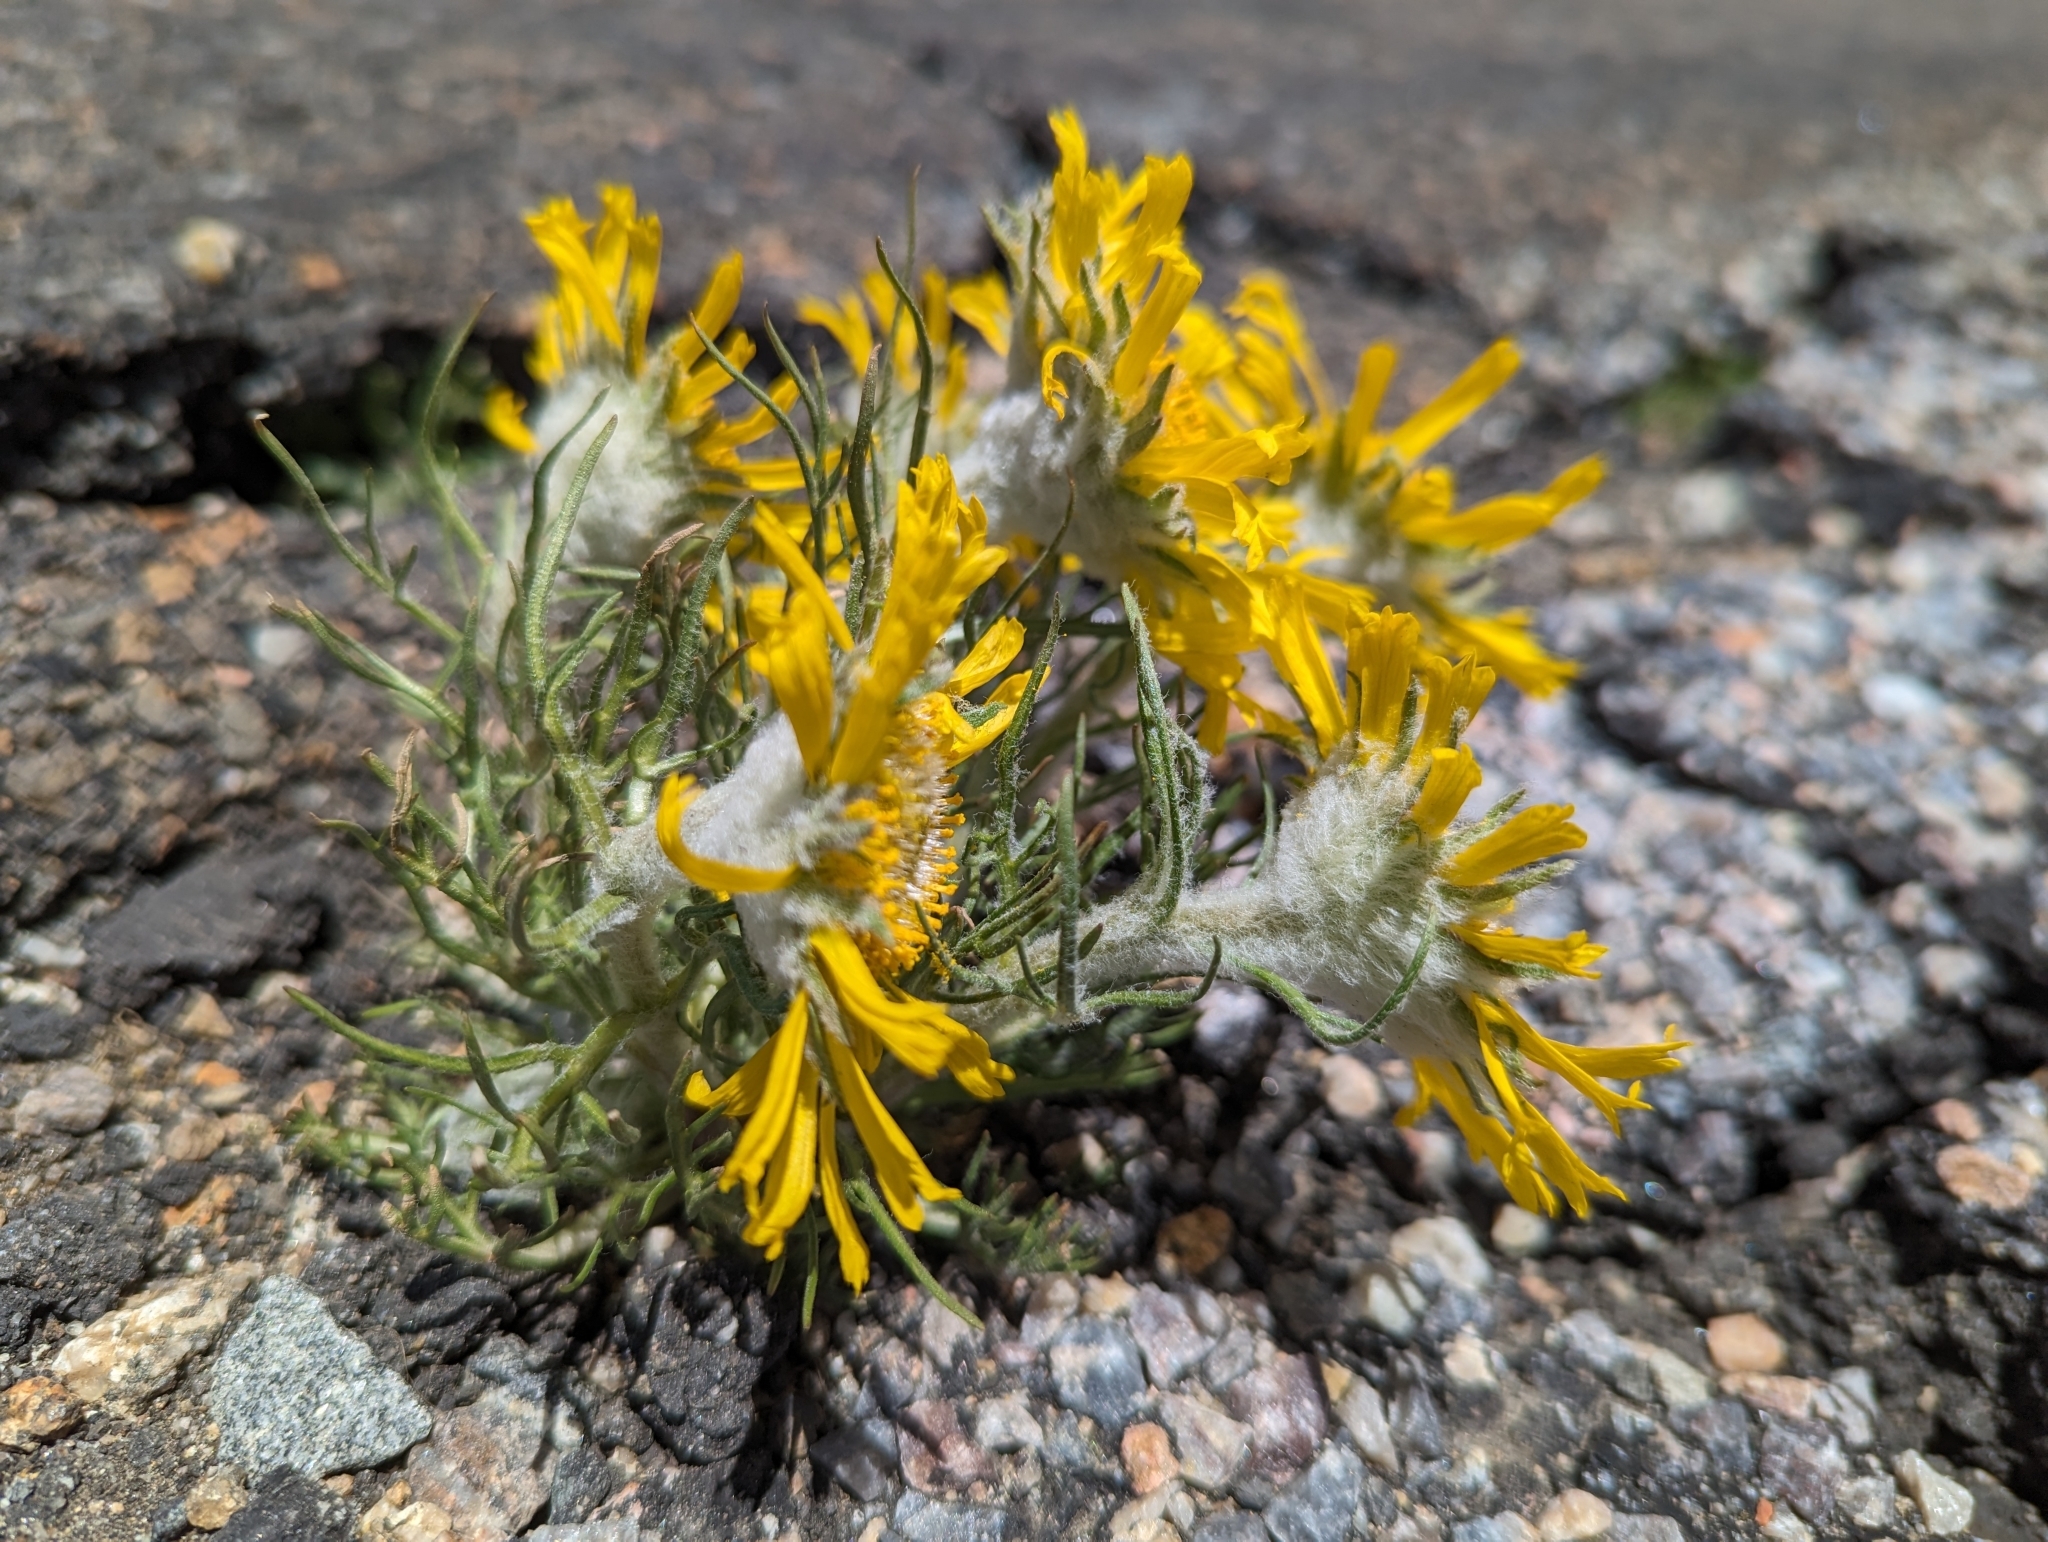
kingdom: Plantae
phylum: Tracheophyta
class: Magnoliopsida
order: Asterales
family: Asteraceae
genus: Hymenoxys
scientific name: Hymenoxys grandiflora
